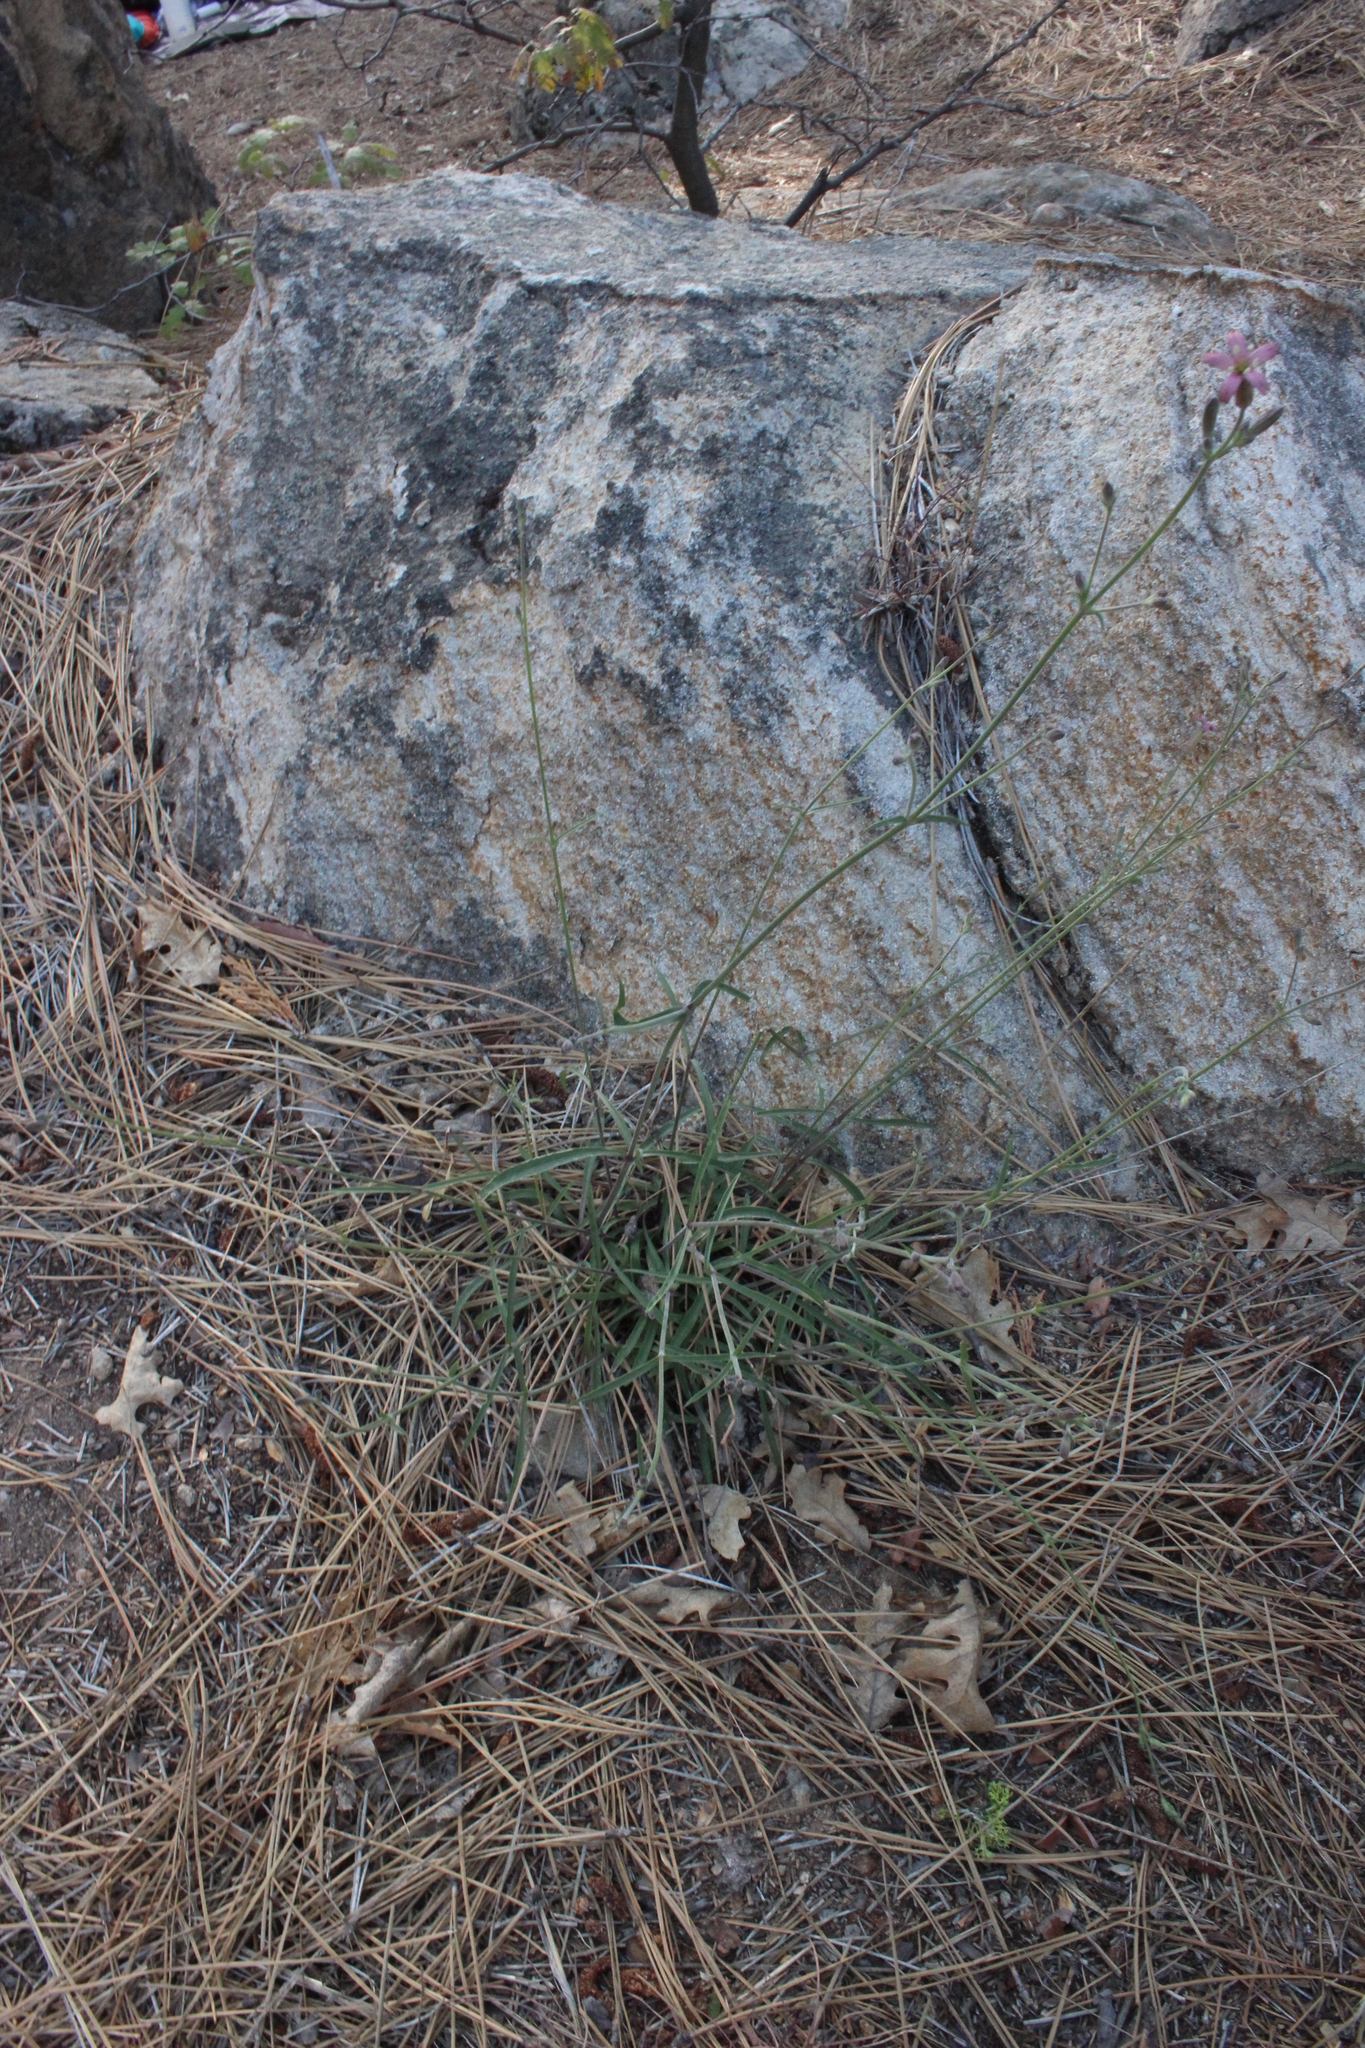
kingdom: Plantae
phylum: Tracheophyta
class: Magnoliopsida
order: Caryophyllales
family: Caryophyllaceae
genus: Silene
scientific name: Silene verecunda
